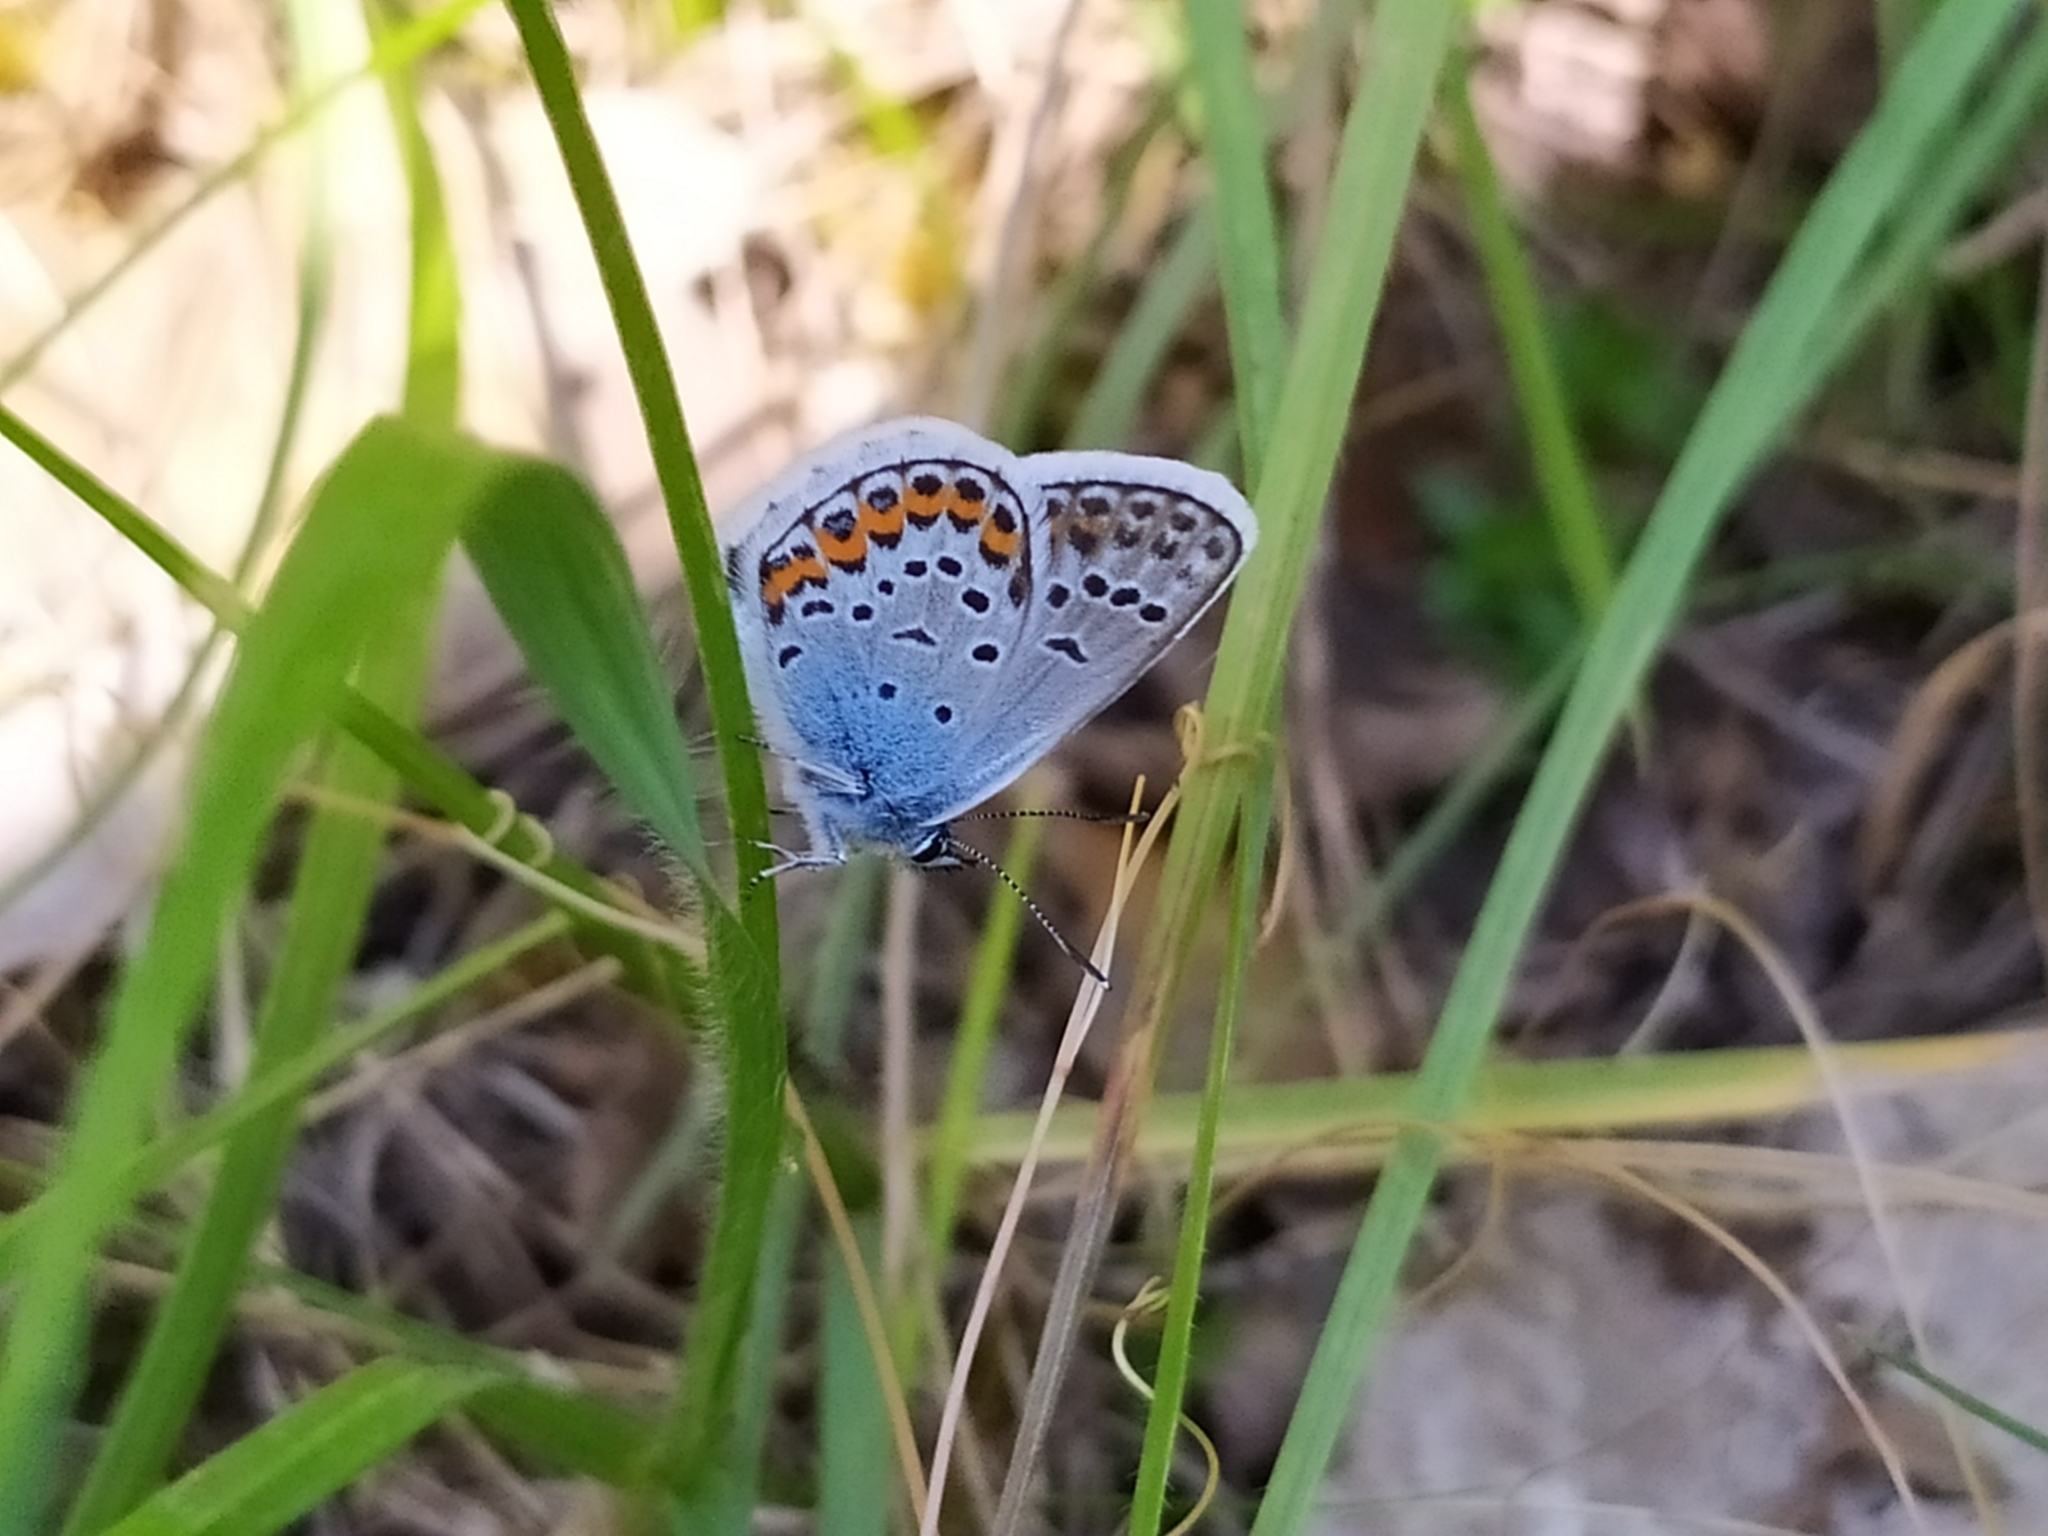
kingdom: Animalia
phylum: Arthropoda
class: Insecta
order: Lepidoptera
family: Lycaenidae
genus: Plebejus
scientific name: Plebejus argus
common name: Silver-studded blue
